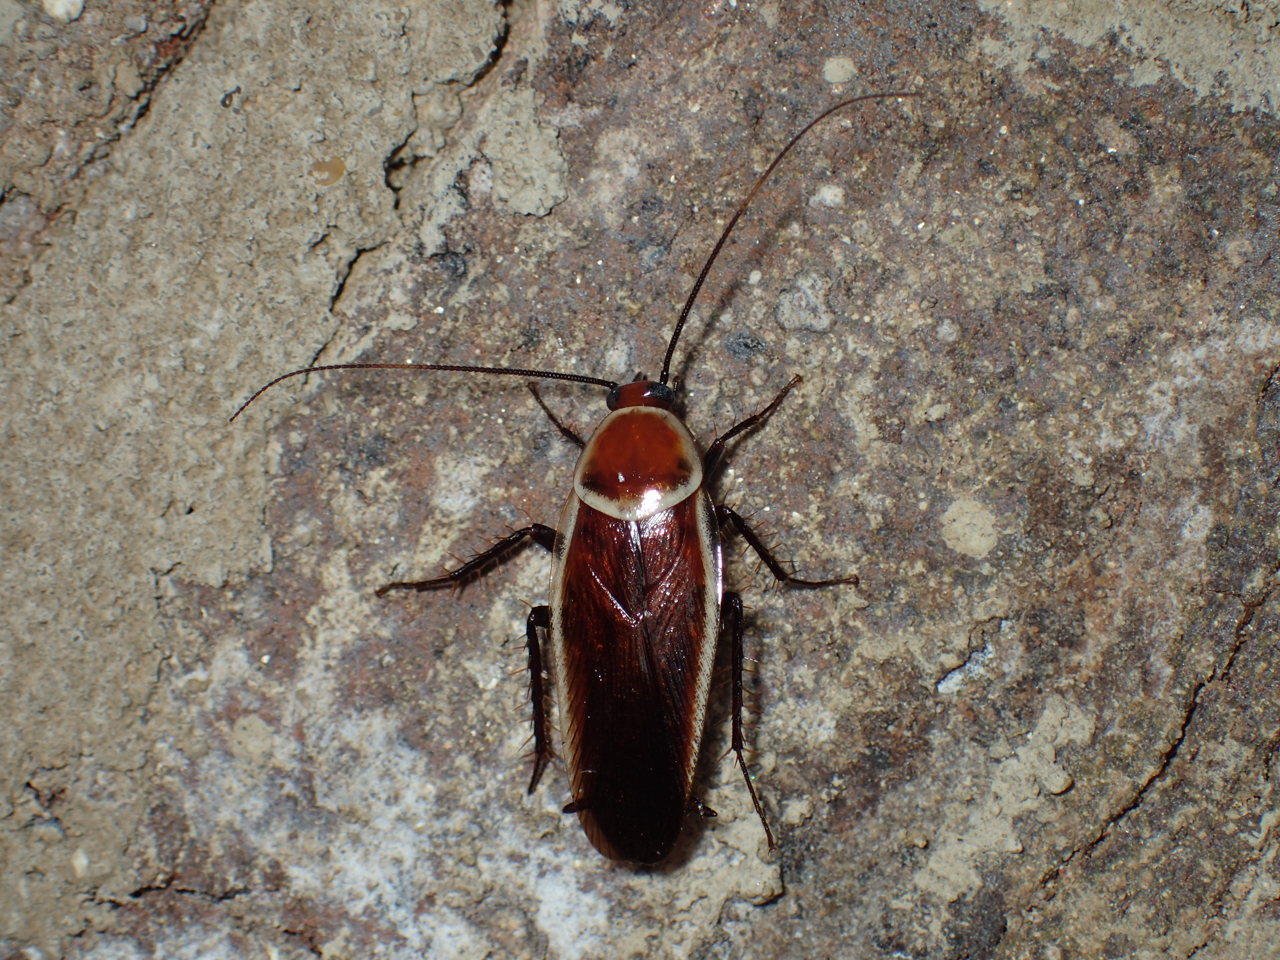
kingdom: Animalia
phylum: Arthropoda
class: Insecta
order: Blattodea
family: Ectobiidae
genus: Pseudomops
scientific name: Pseudomops septentrionalis
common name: Pale-bordered field cockroach
